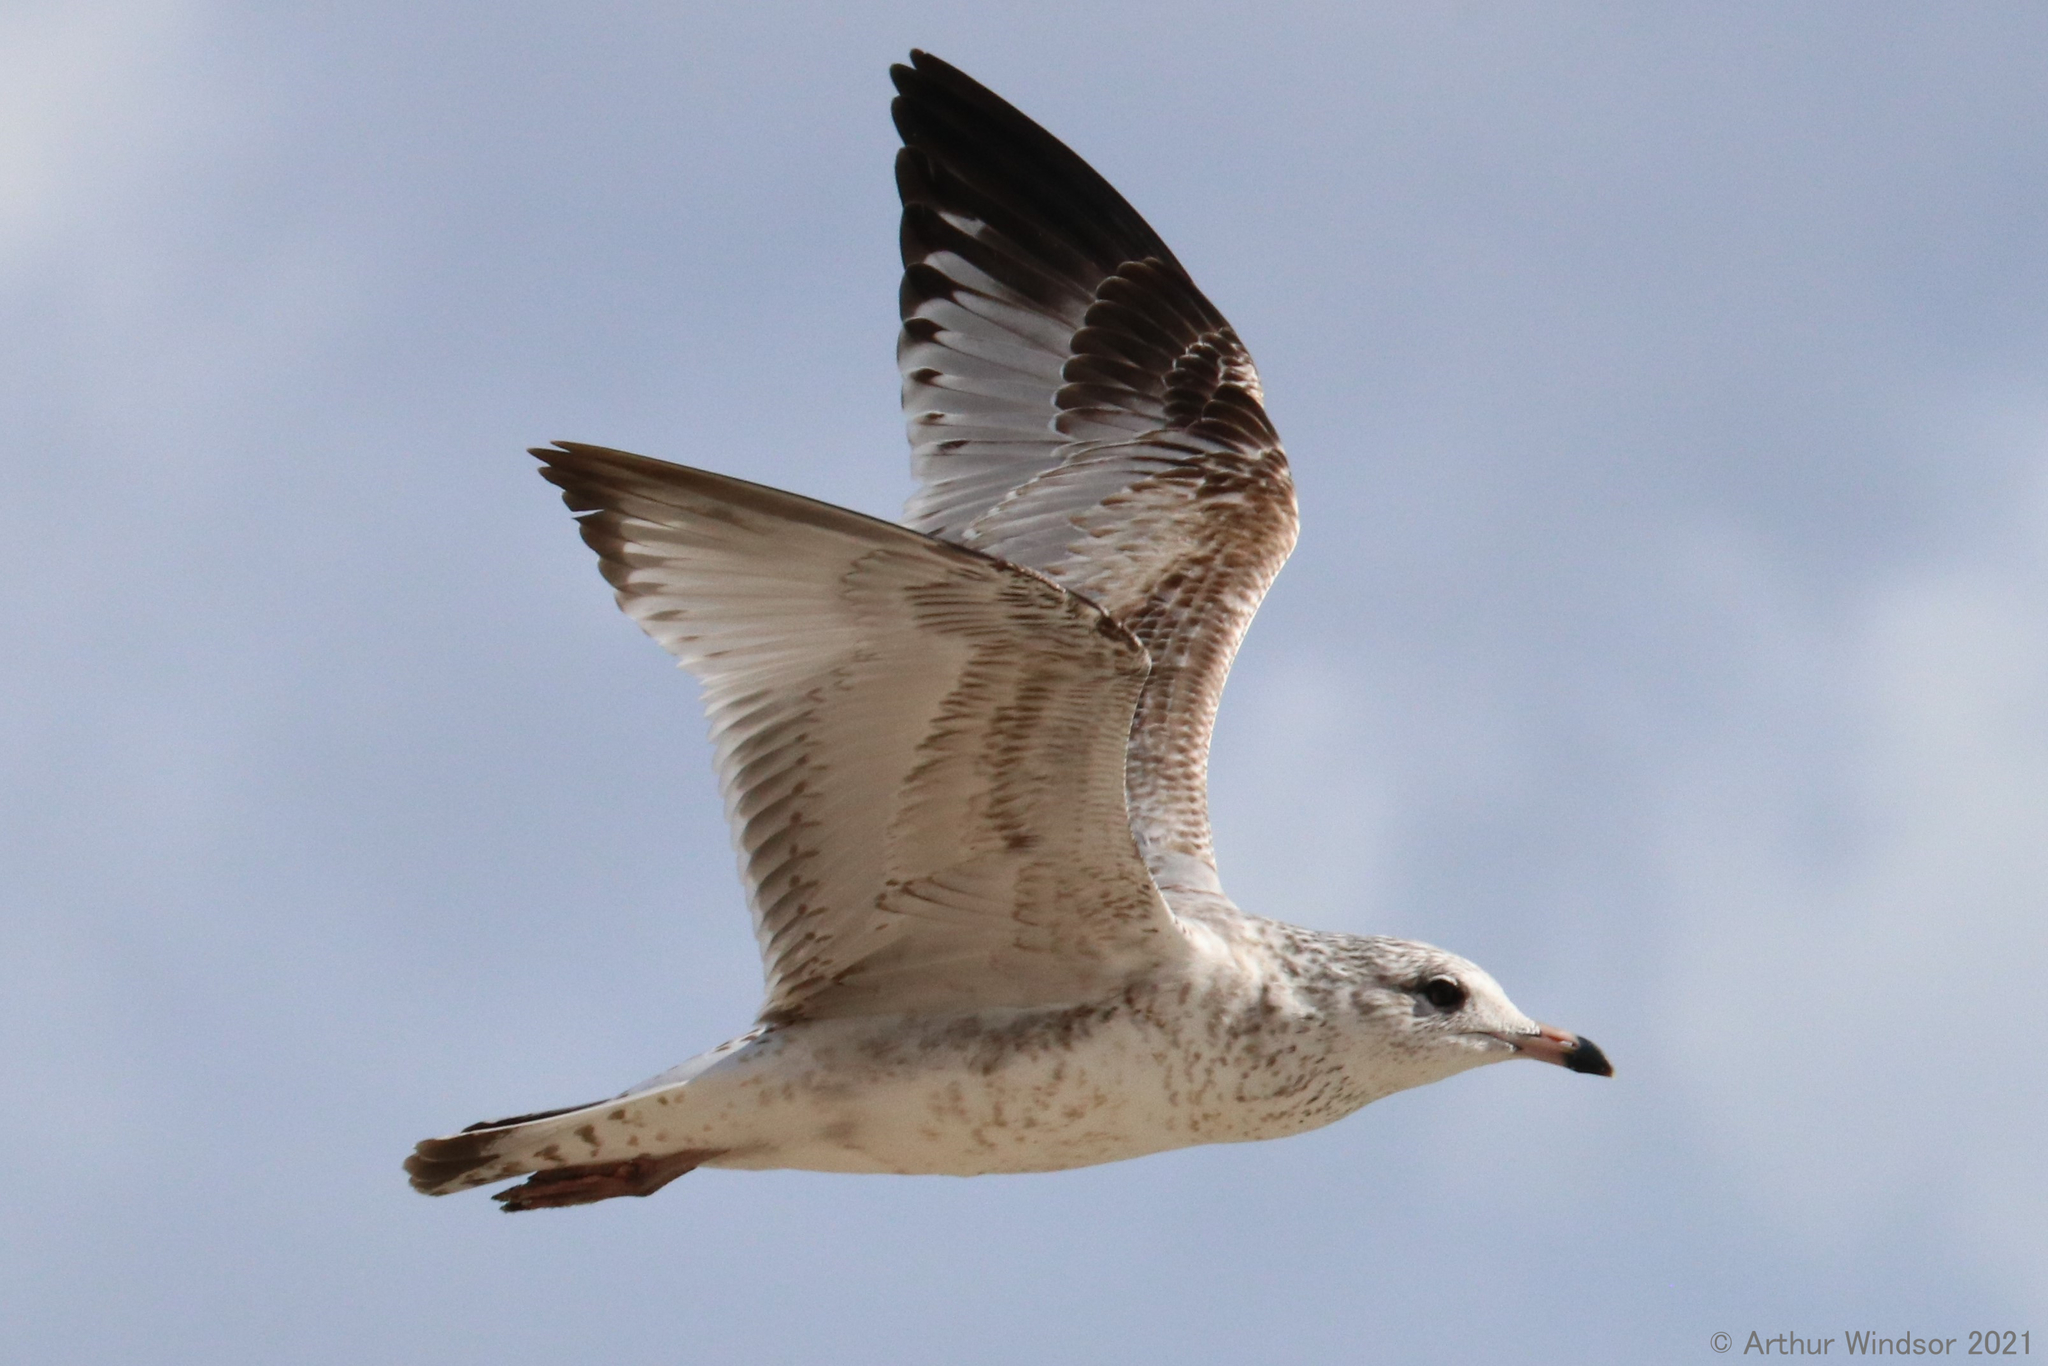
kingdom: Animalia
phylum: Chordata
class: Aves
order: Charadriiformes
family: Laridae
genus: Larus
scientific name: Larus delawarensis
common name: Ring-billed gull
